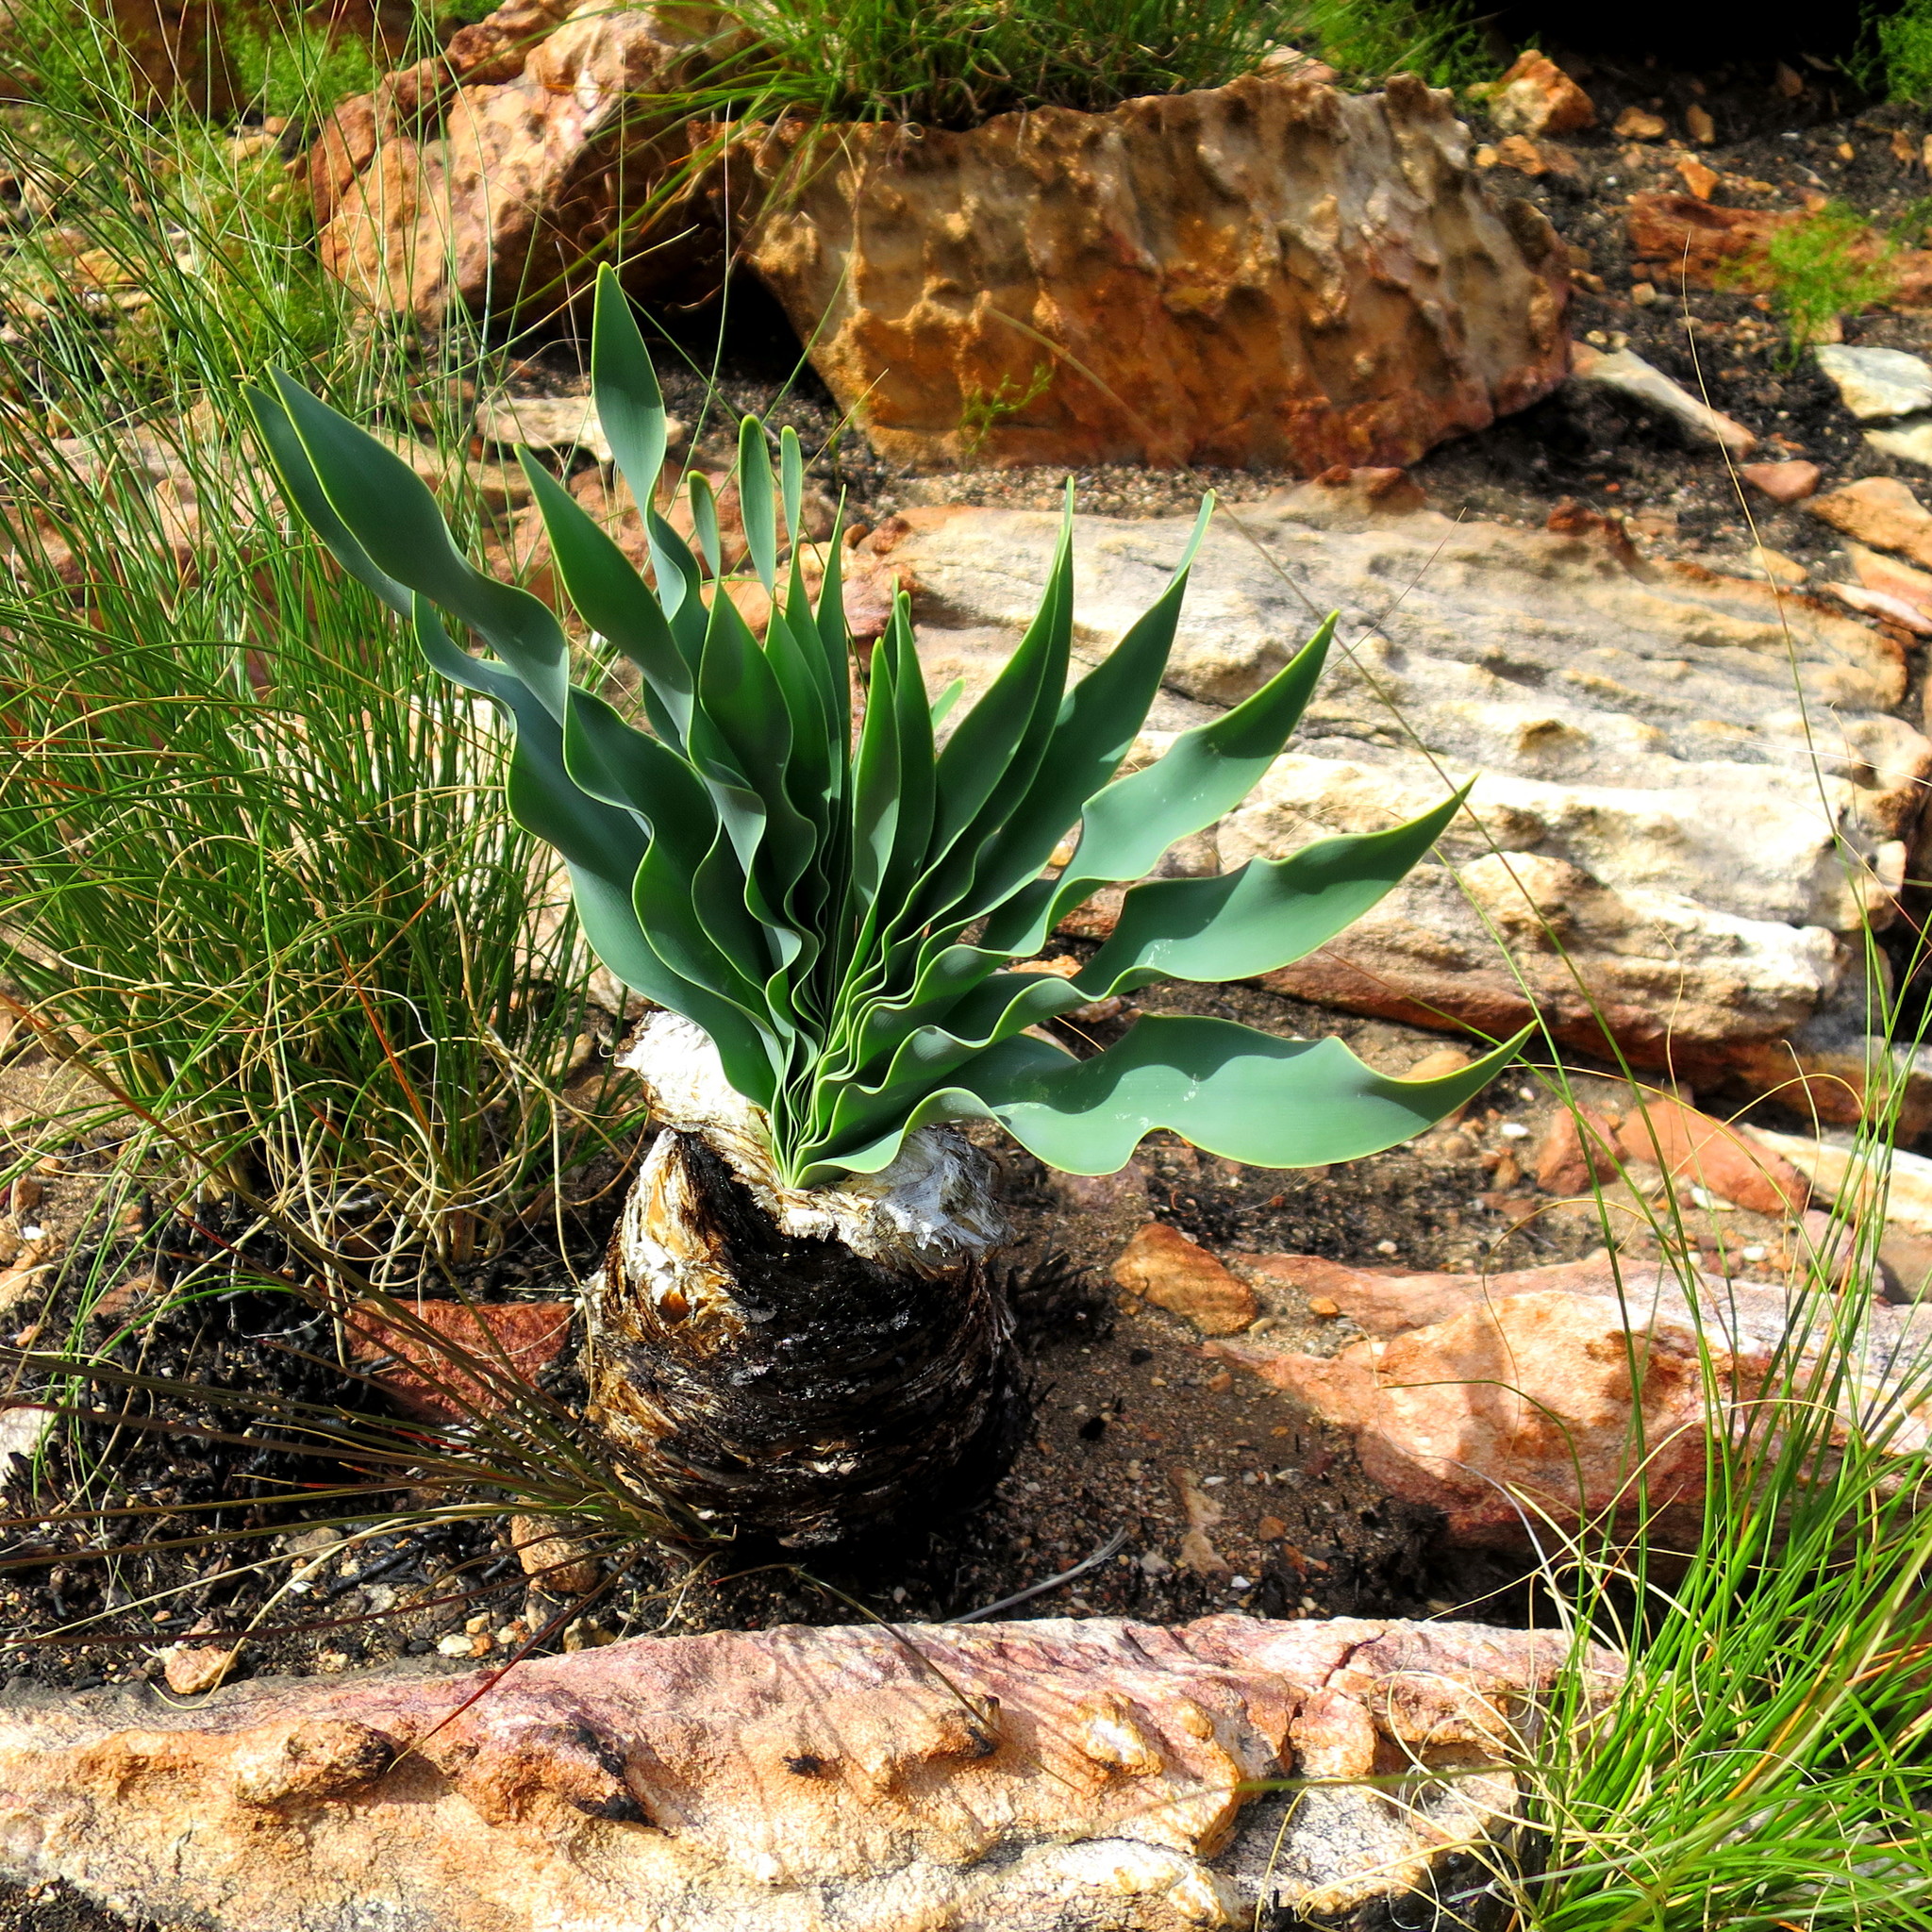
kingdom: Plantae
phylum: Tracheophyta
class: Liliopsida
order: Asparagales
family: Amaryllidaceae
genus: Boophone
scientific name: Boophone disticha
